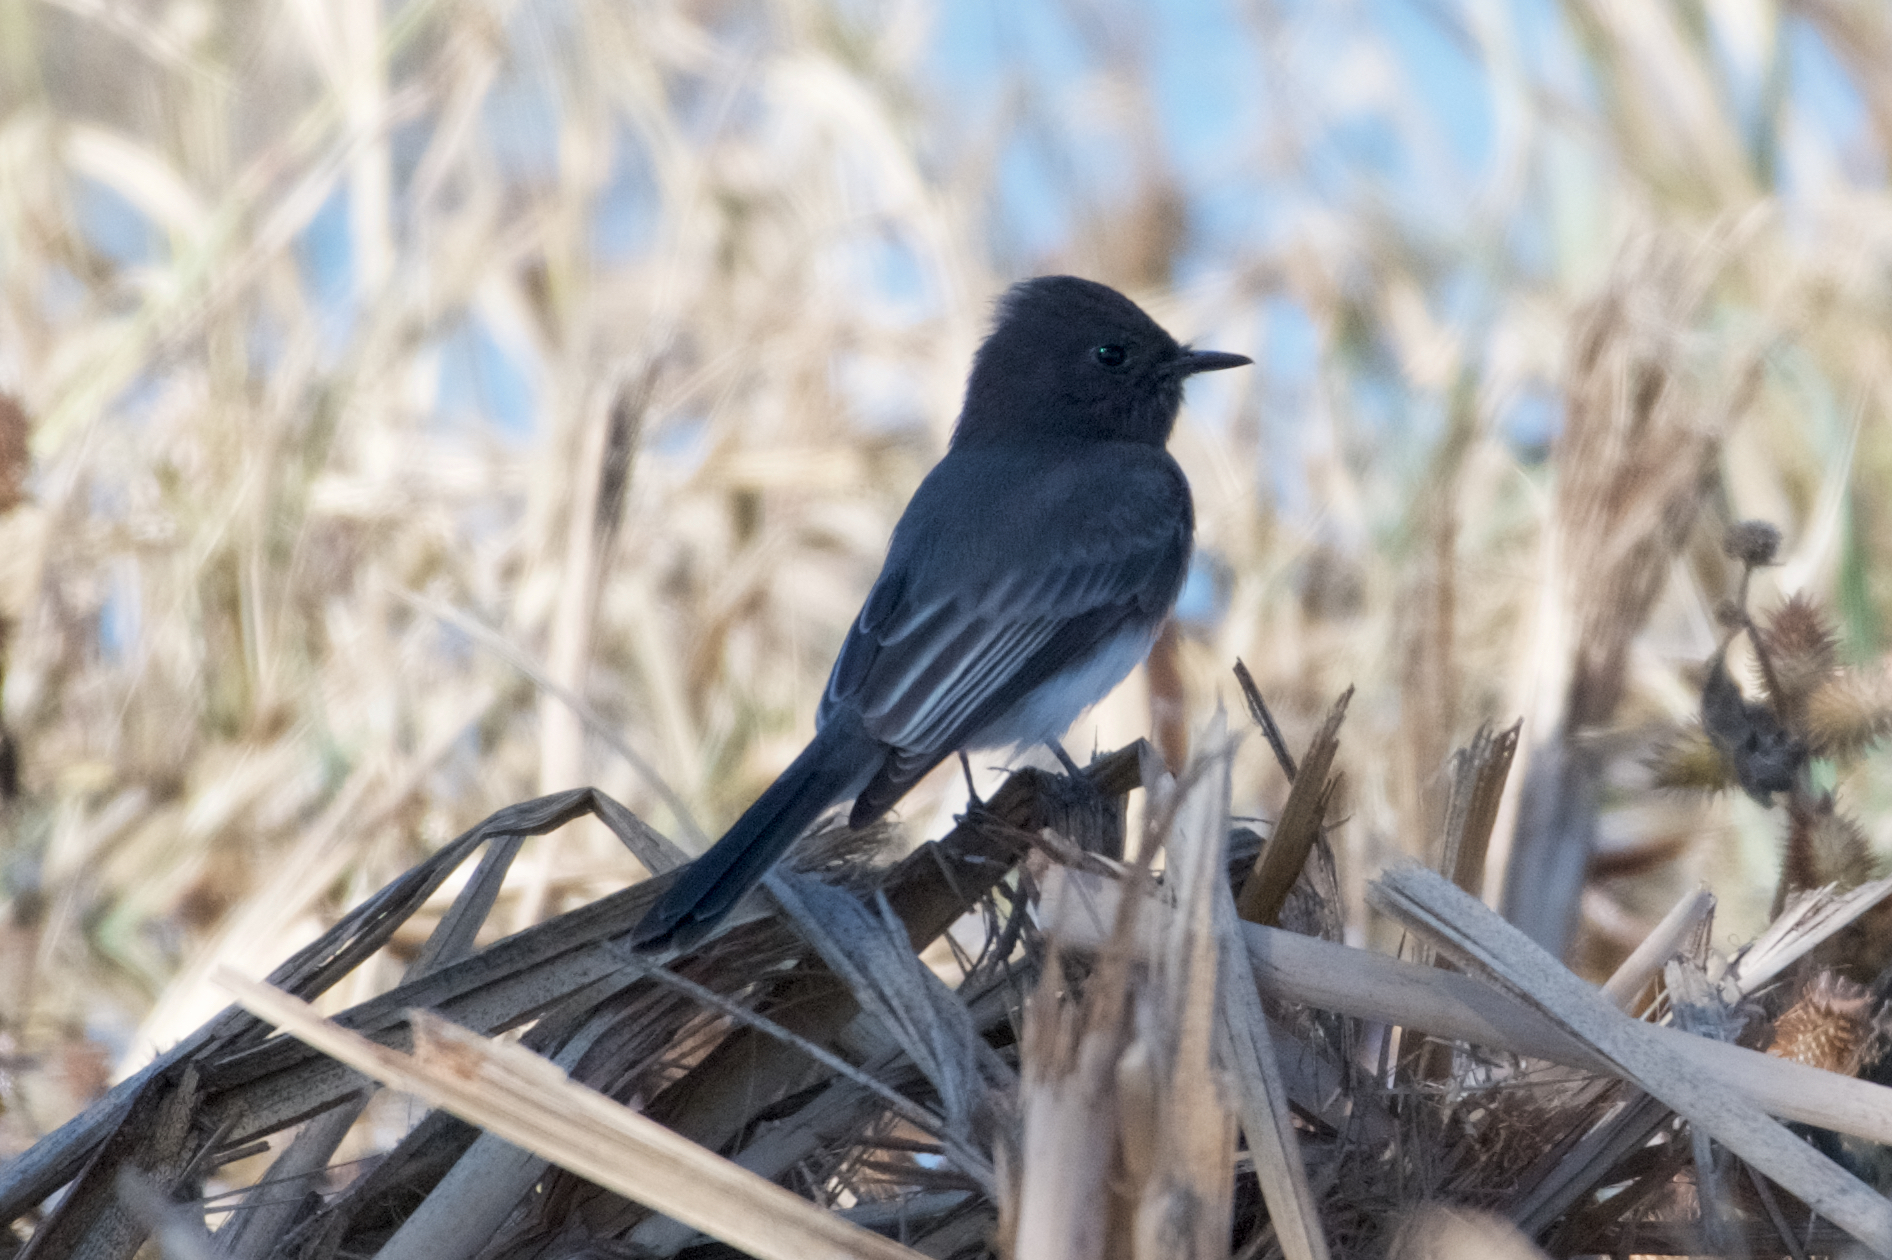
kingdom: Animalia
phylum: Chordata
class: Aves
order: Passeriformes
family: Tyrannidae
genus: Sayornis
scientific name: Sayornis nigricans
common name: Black phoebe
